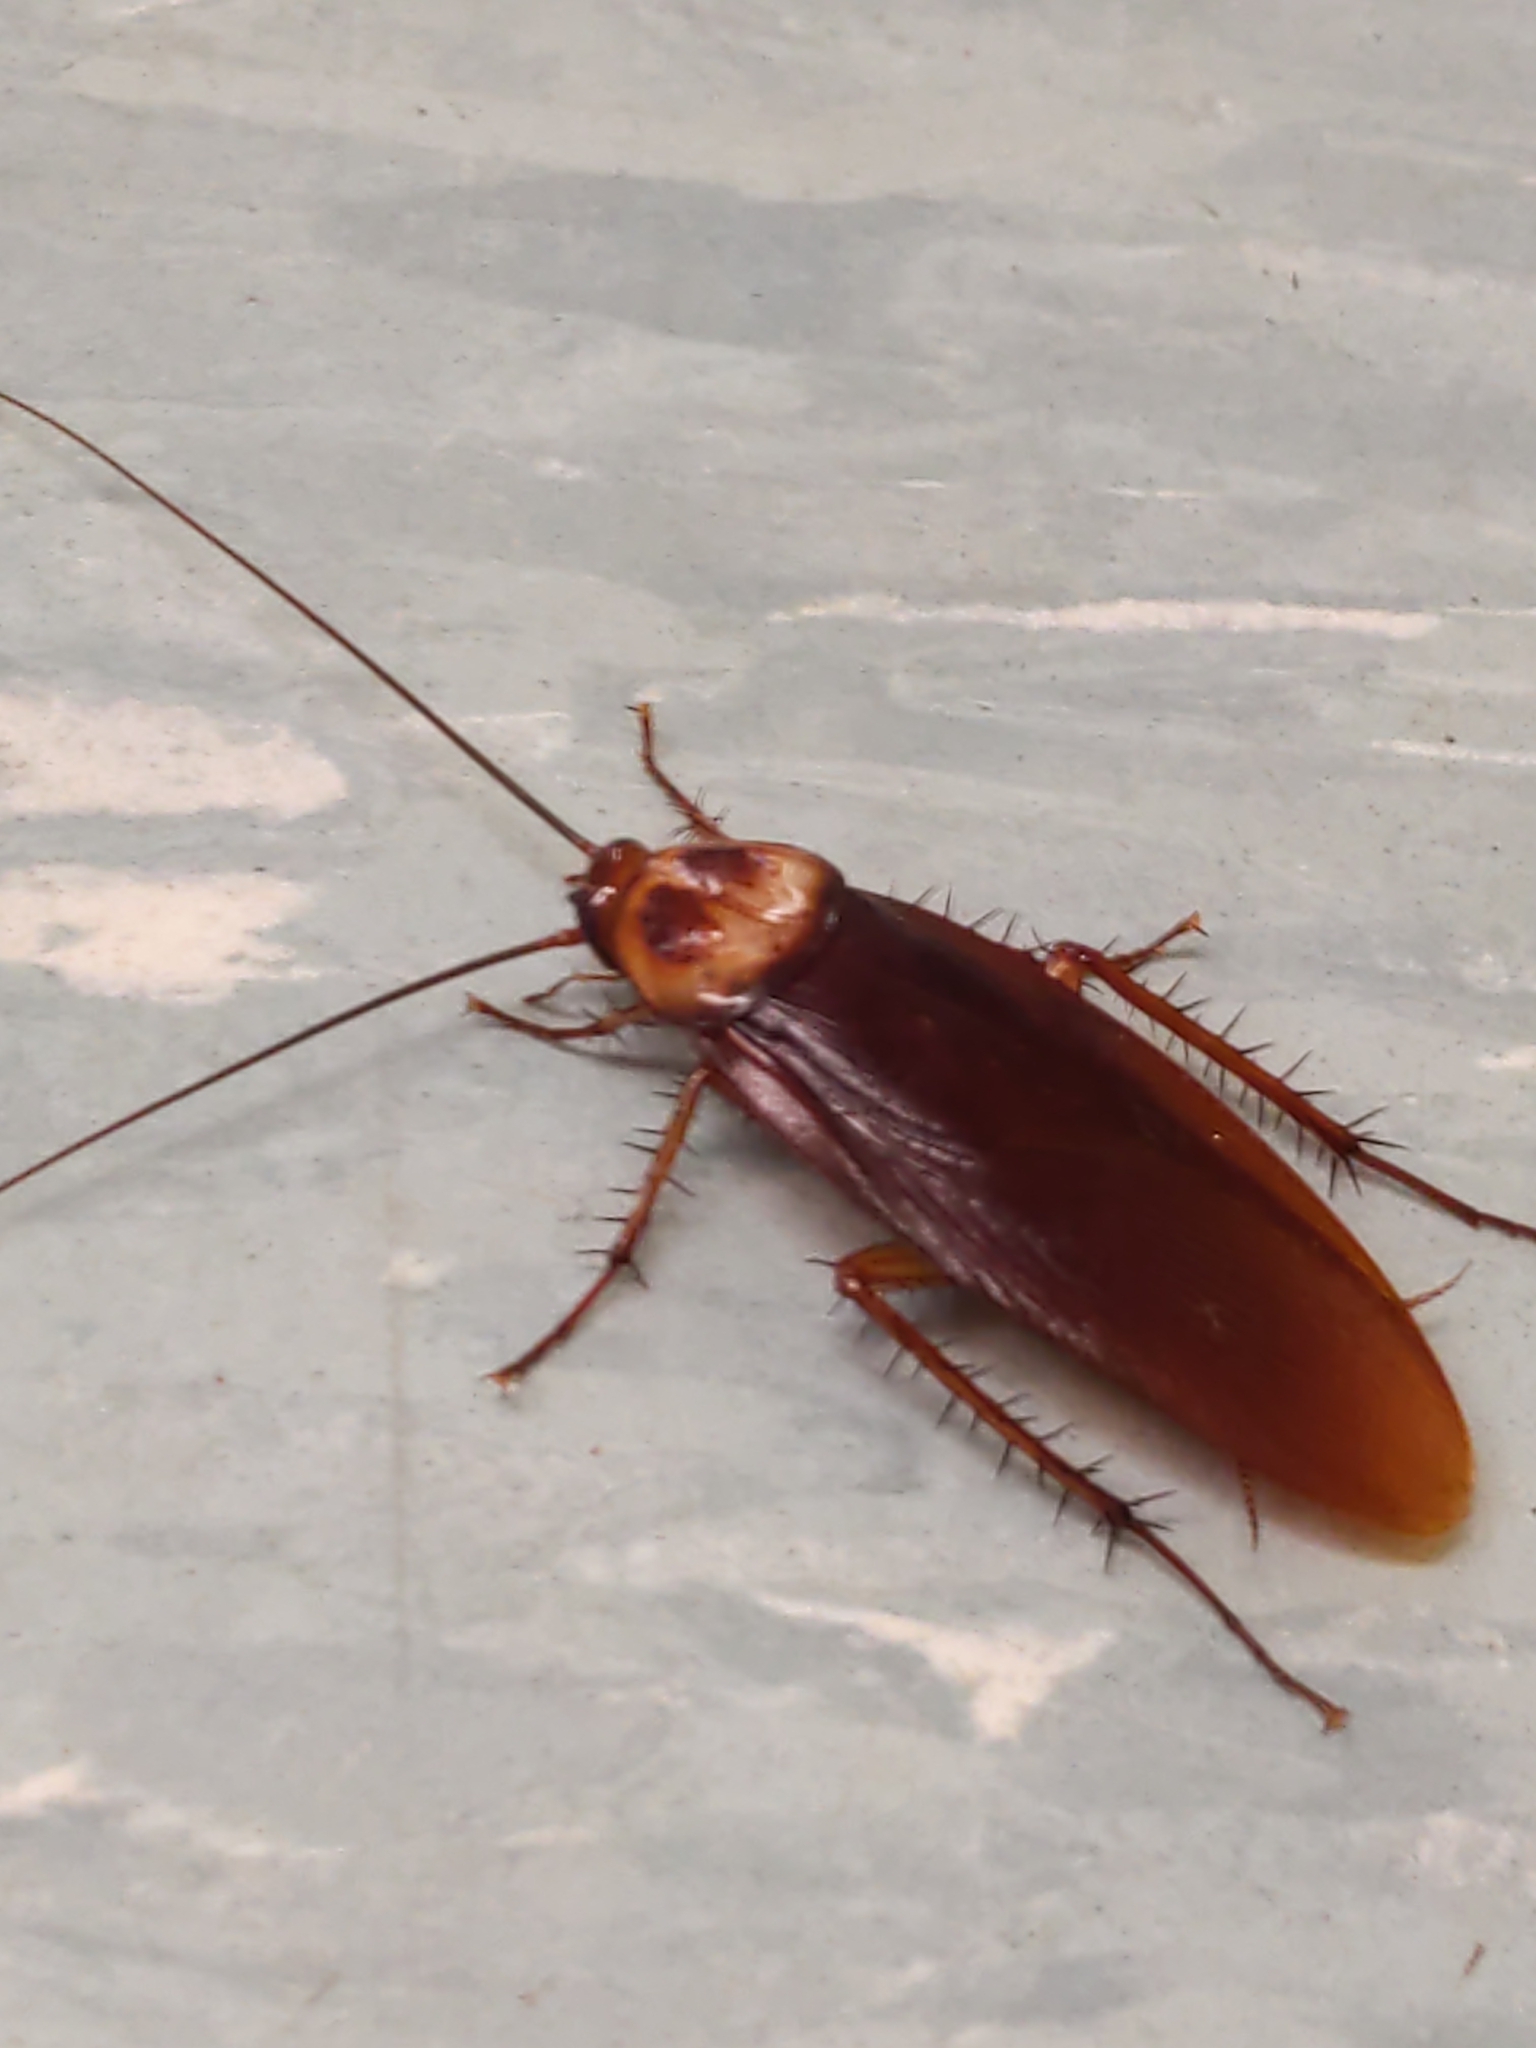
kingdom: Animalia
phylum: Arthropoda
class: Insecta
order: Blattodea
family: Blattidae
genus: Periplaneta
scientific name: Periplaneta americana
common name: American cockroach
